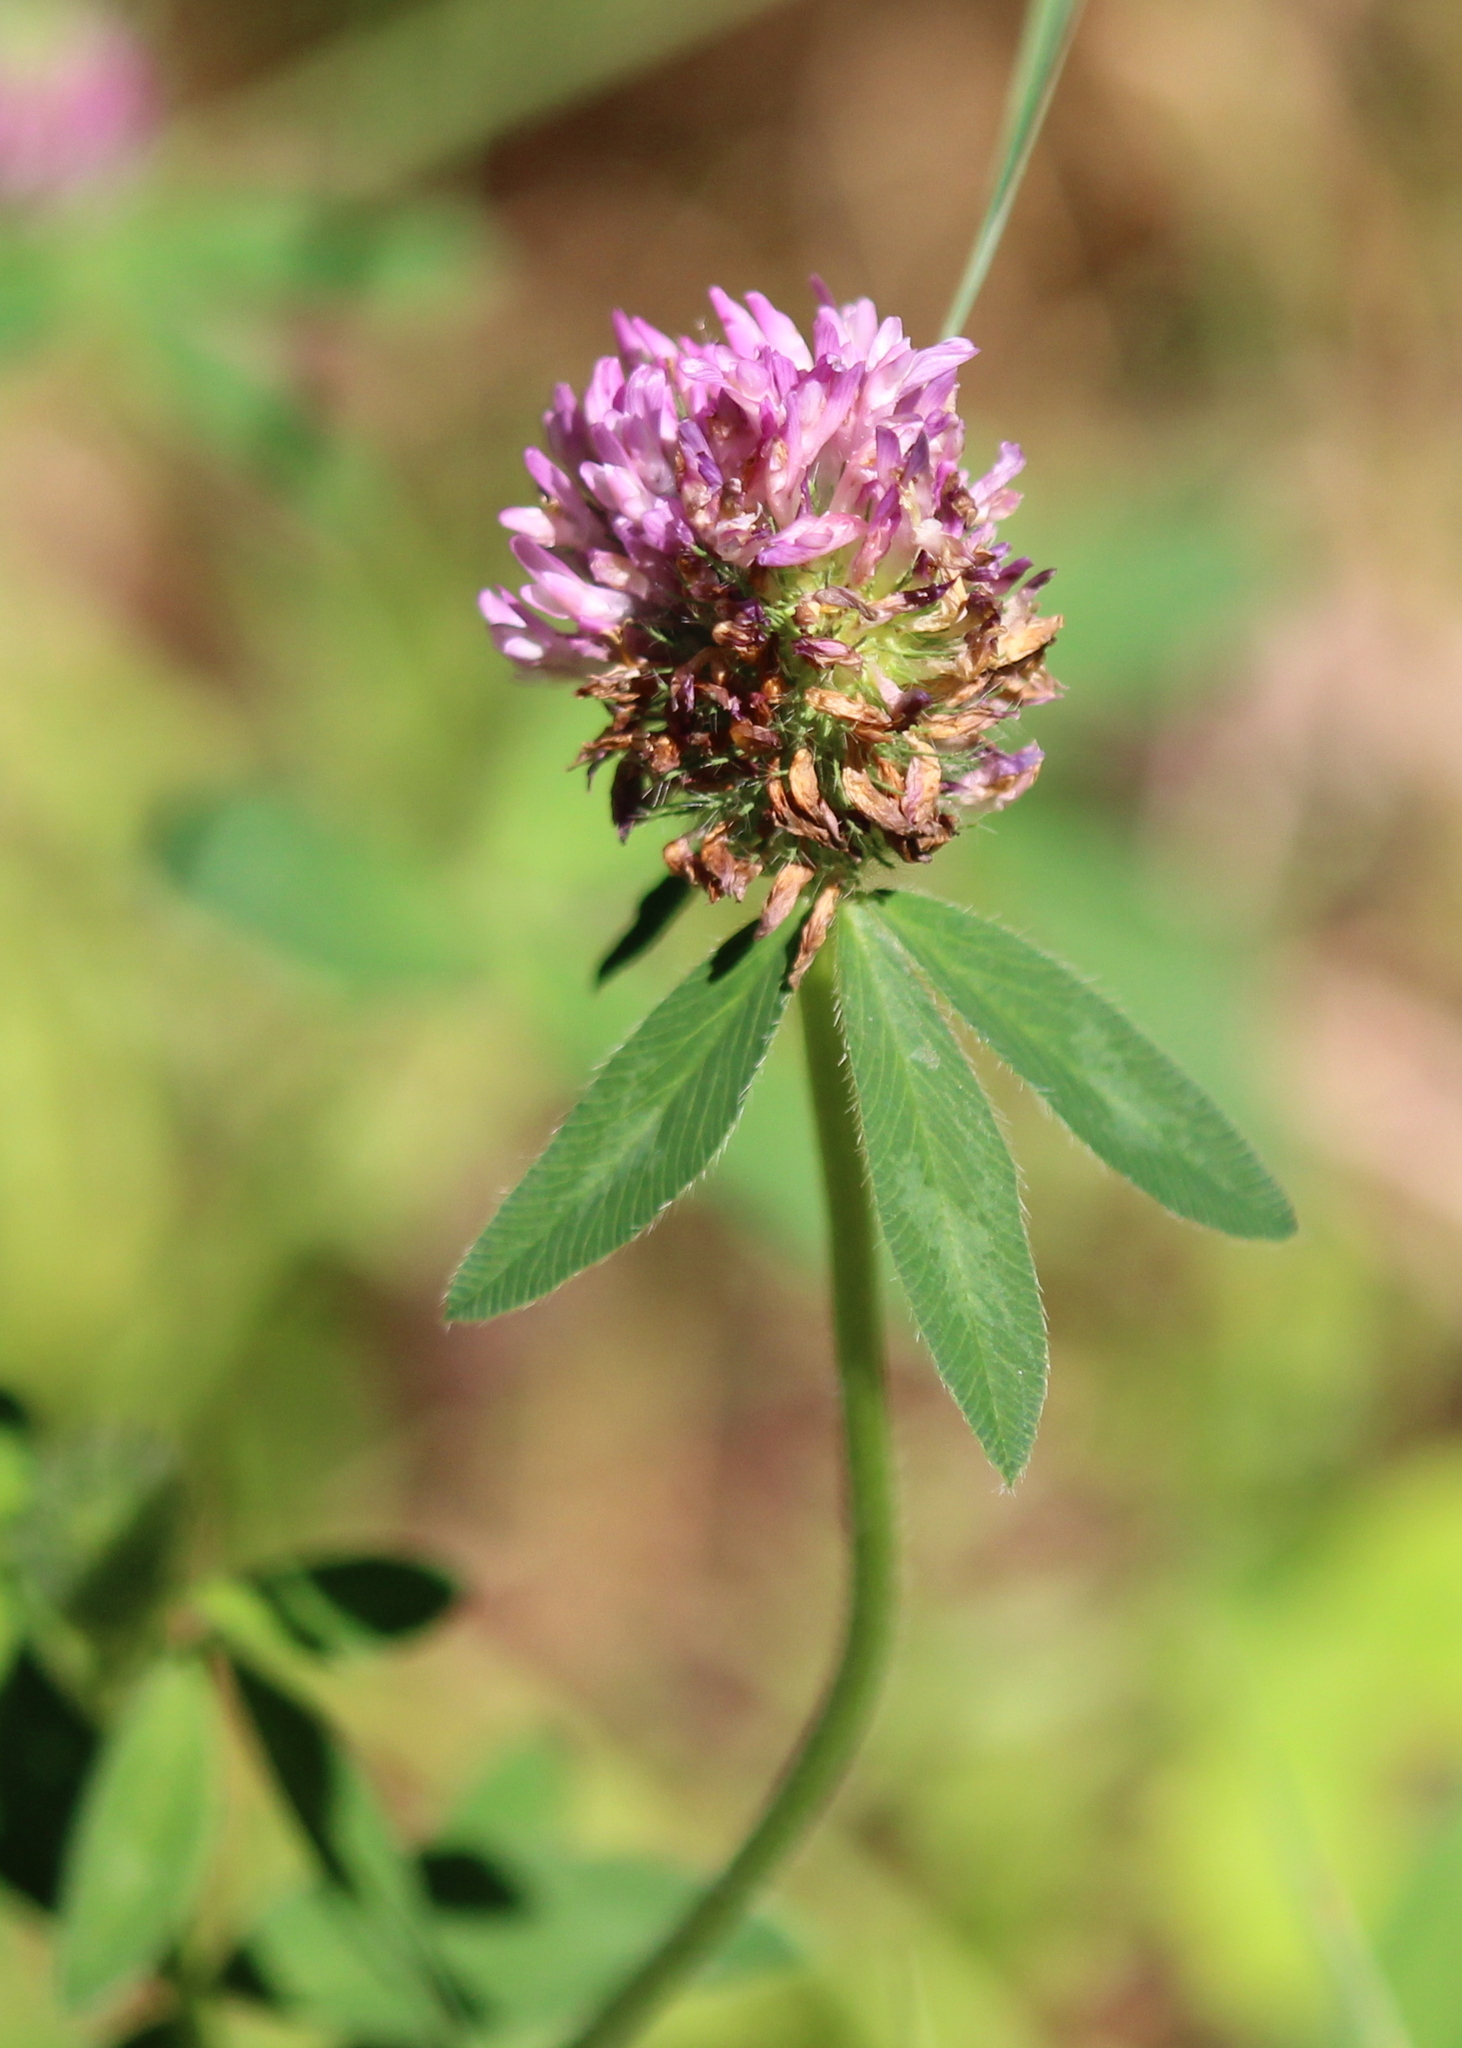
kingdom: Plantae
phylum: Tracheophyta
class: Magnoliopsida
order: Fabales
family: Fabaceae
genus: Trifolium
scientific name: Trifolium pratense
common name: Red clover
